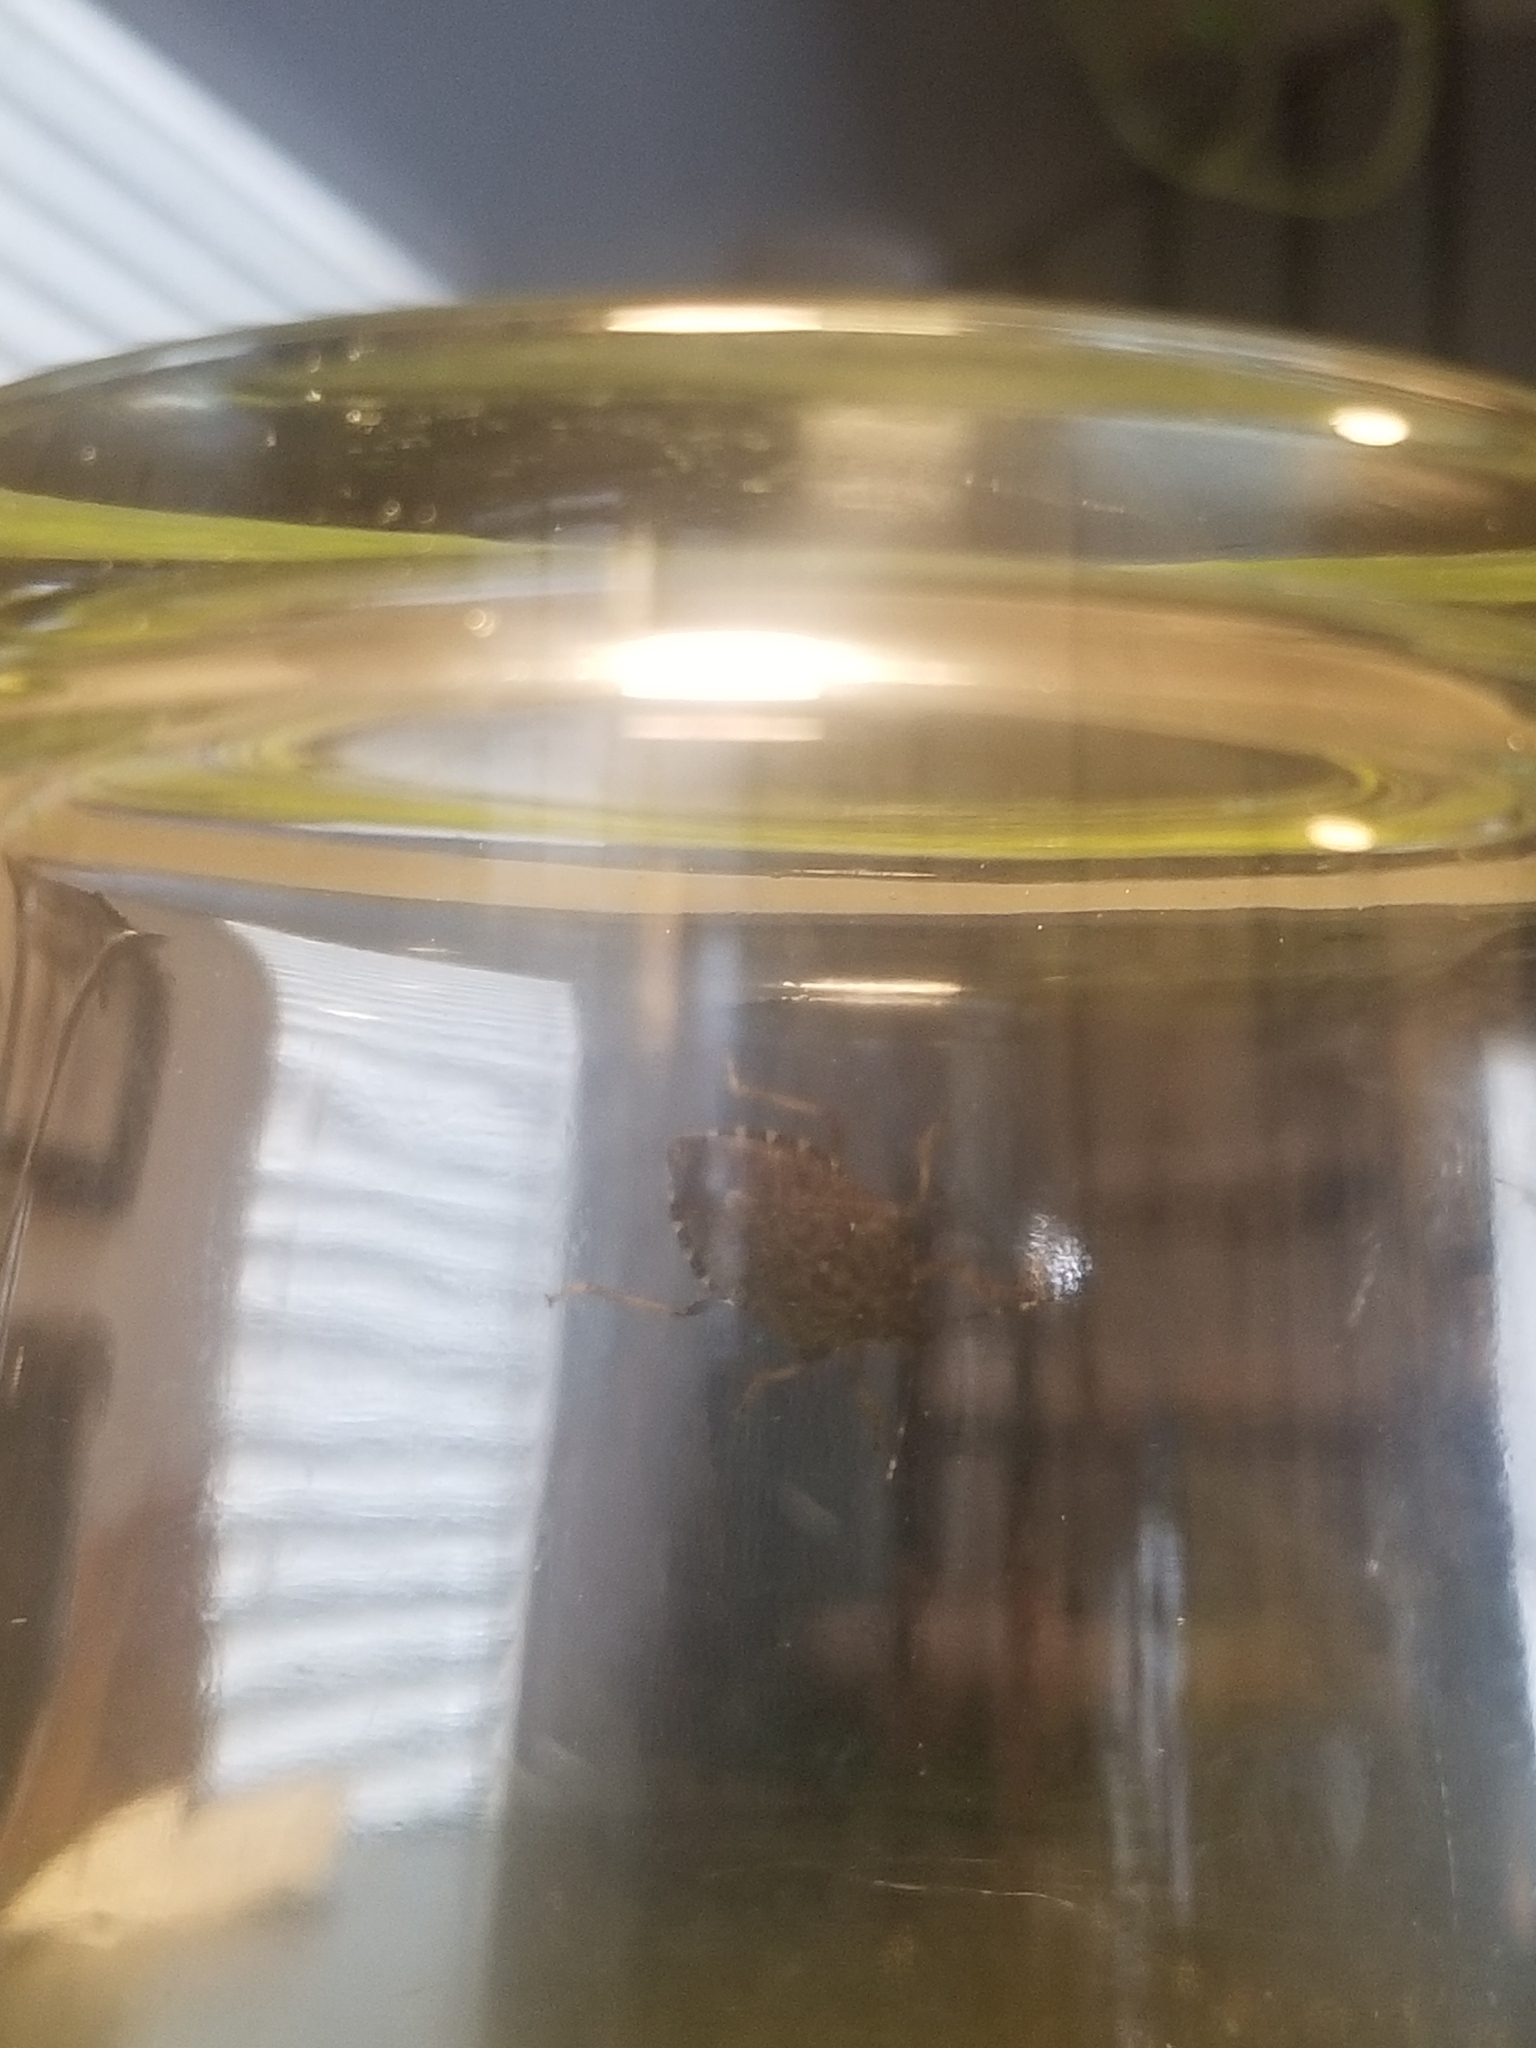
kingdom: Animalia
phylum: Arthropoda
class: Insecta
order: Hemiptera
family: Pentatomidae
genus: Halyomorpha
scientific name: Halyomorpha halys
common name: Brown marmorated stink bug
